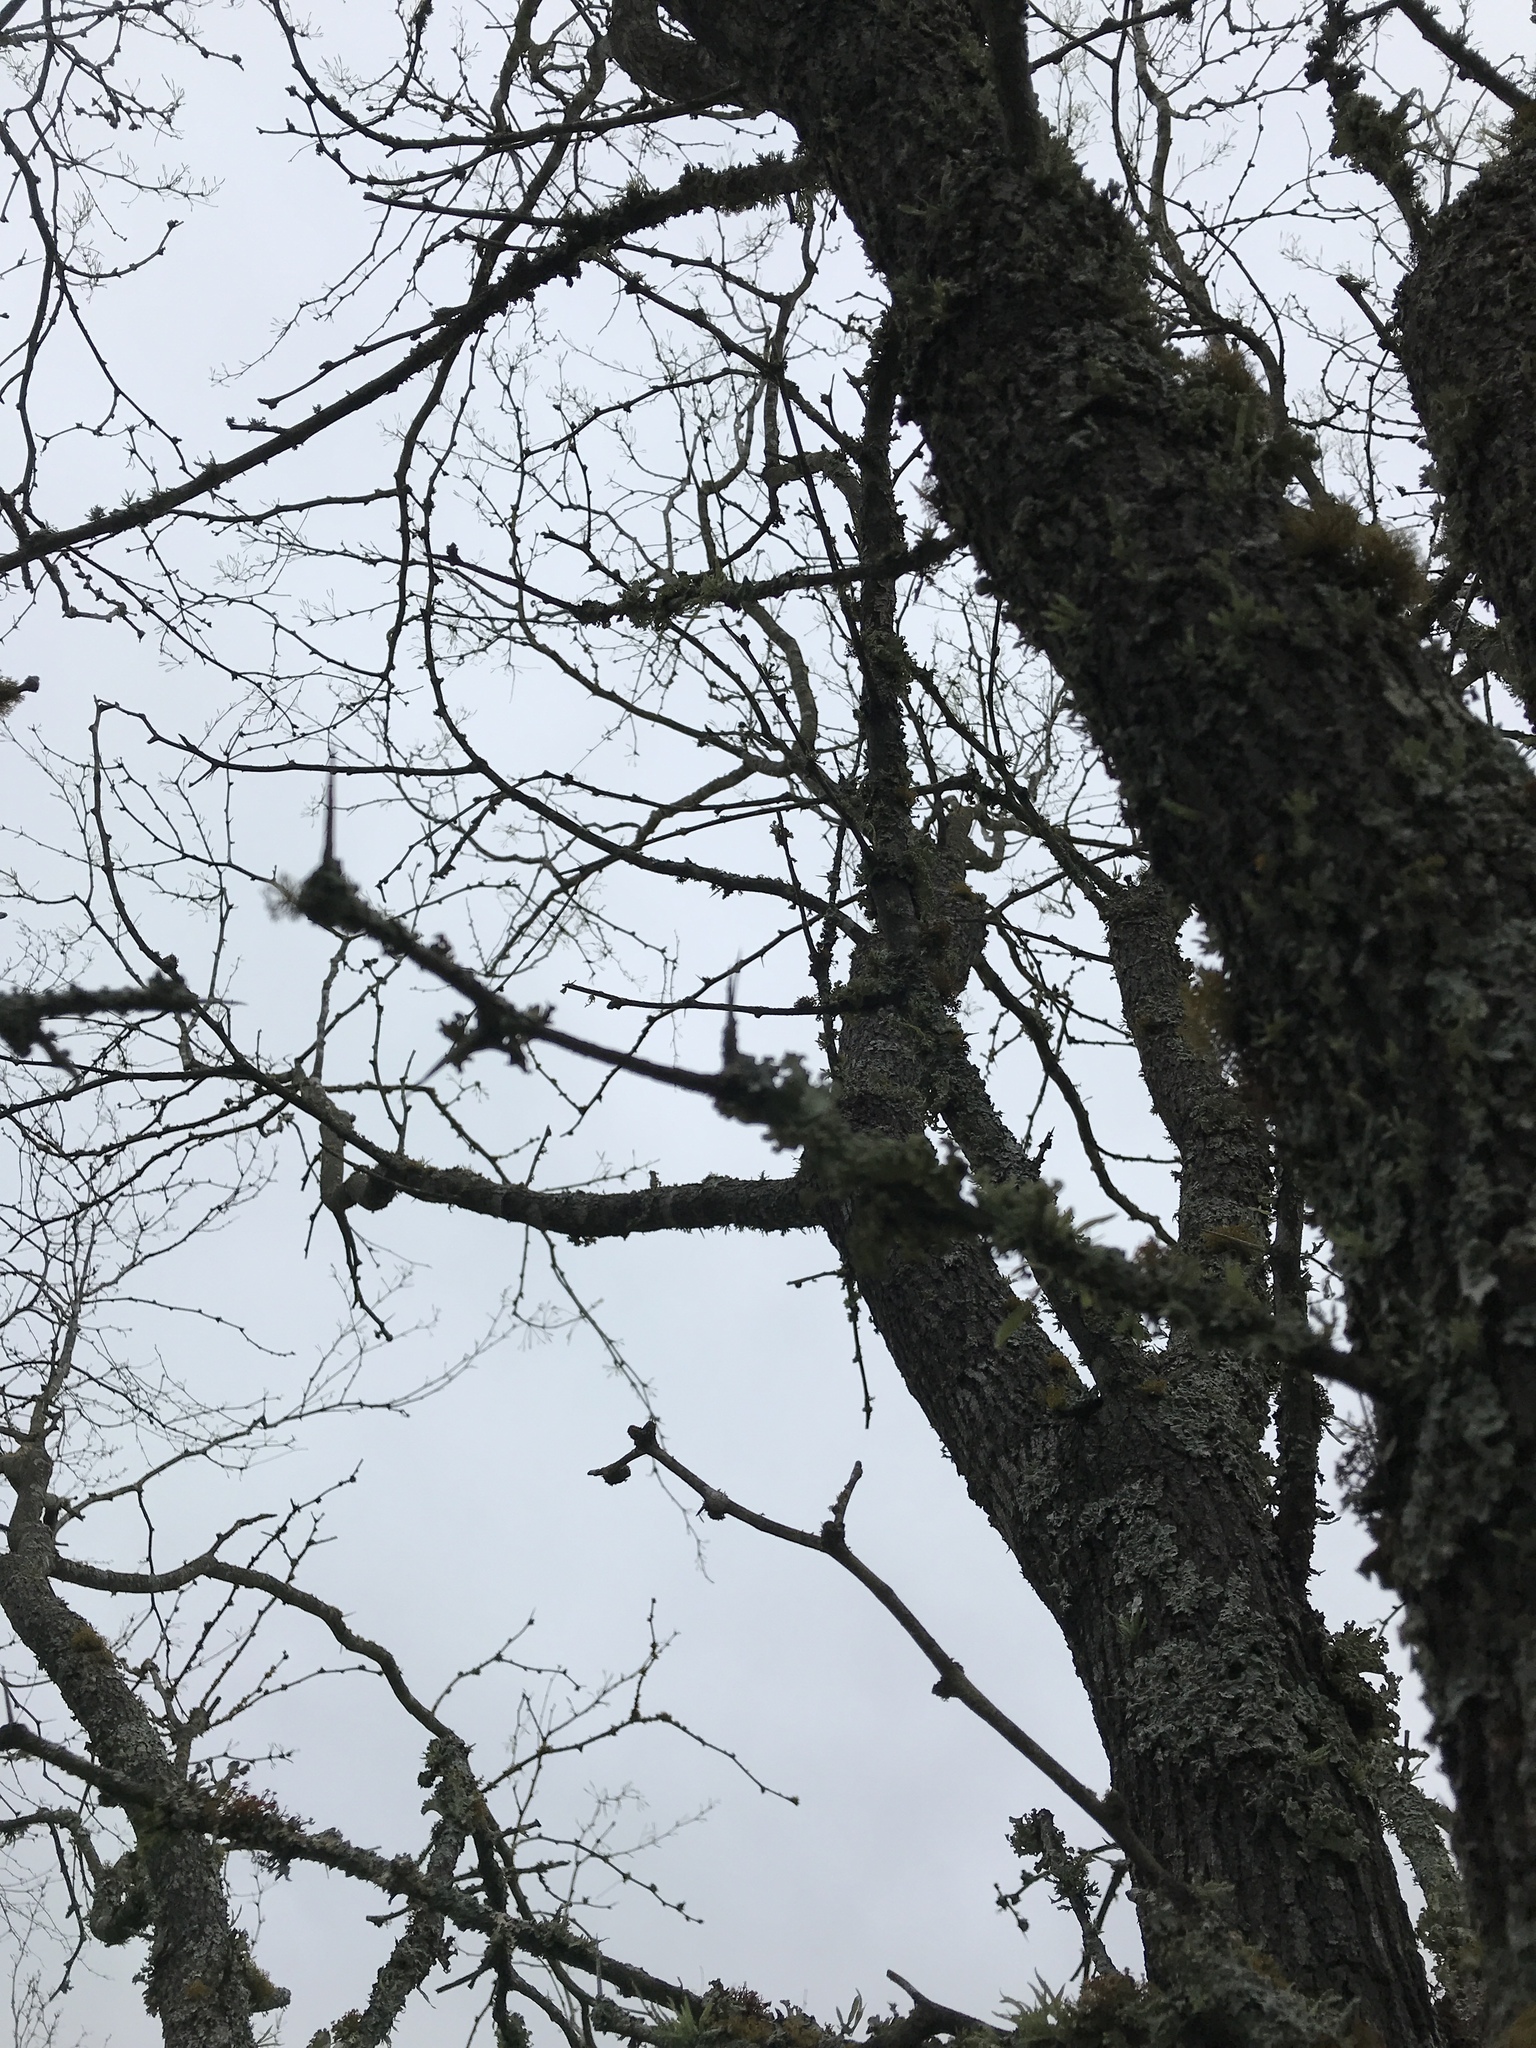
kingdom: Plantae
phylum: Tracheophyta
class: Magnoliopsida
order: Fabales
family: Fabaceae
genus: Prosopis
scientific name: Prosopis glandulosa
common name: Honey mesquite
